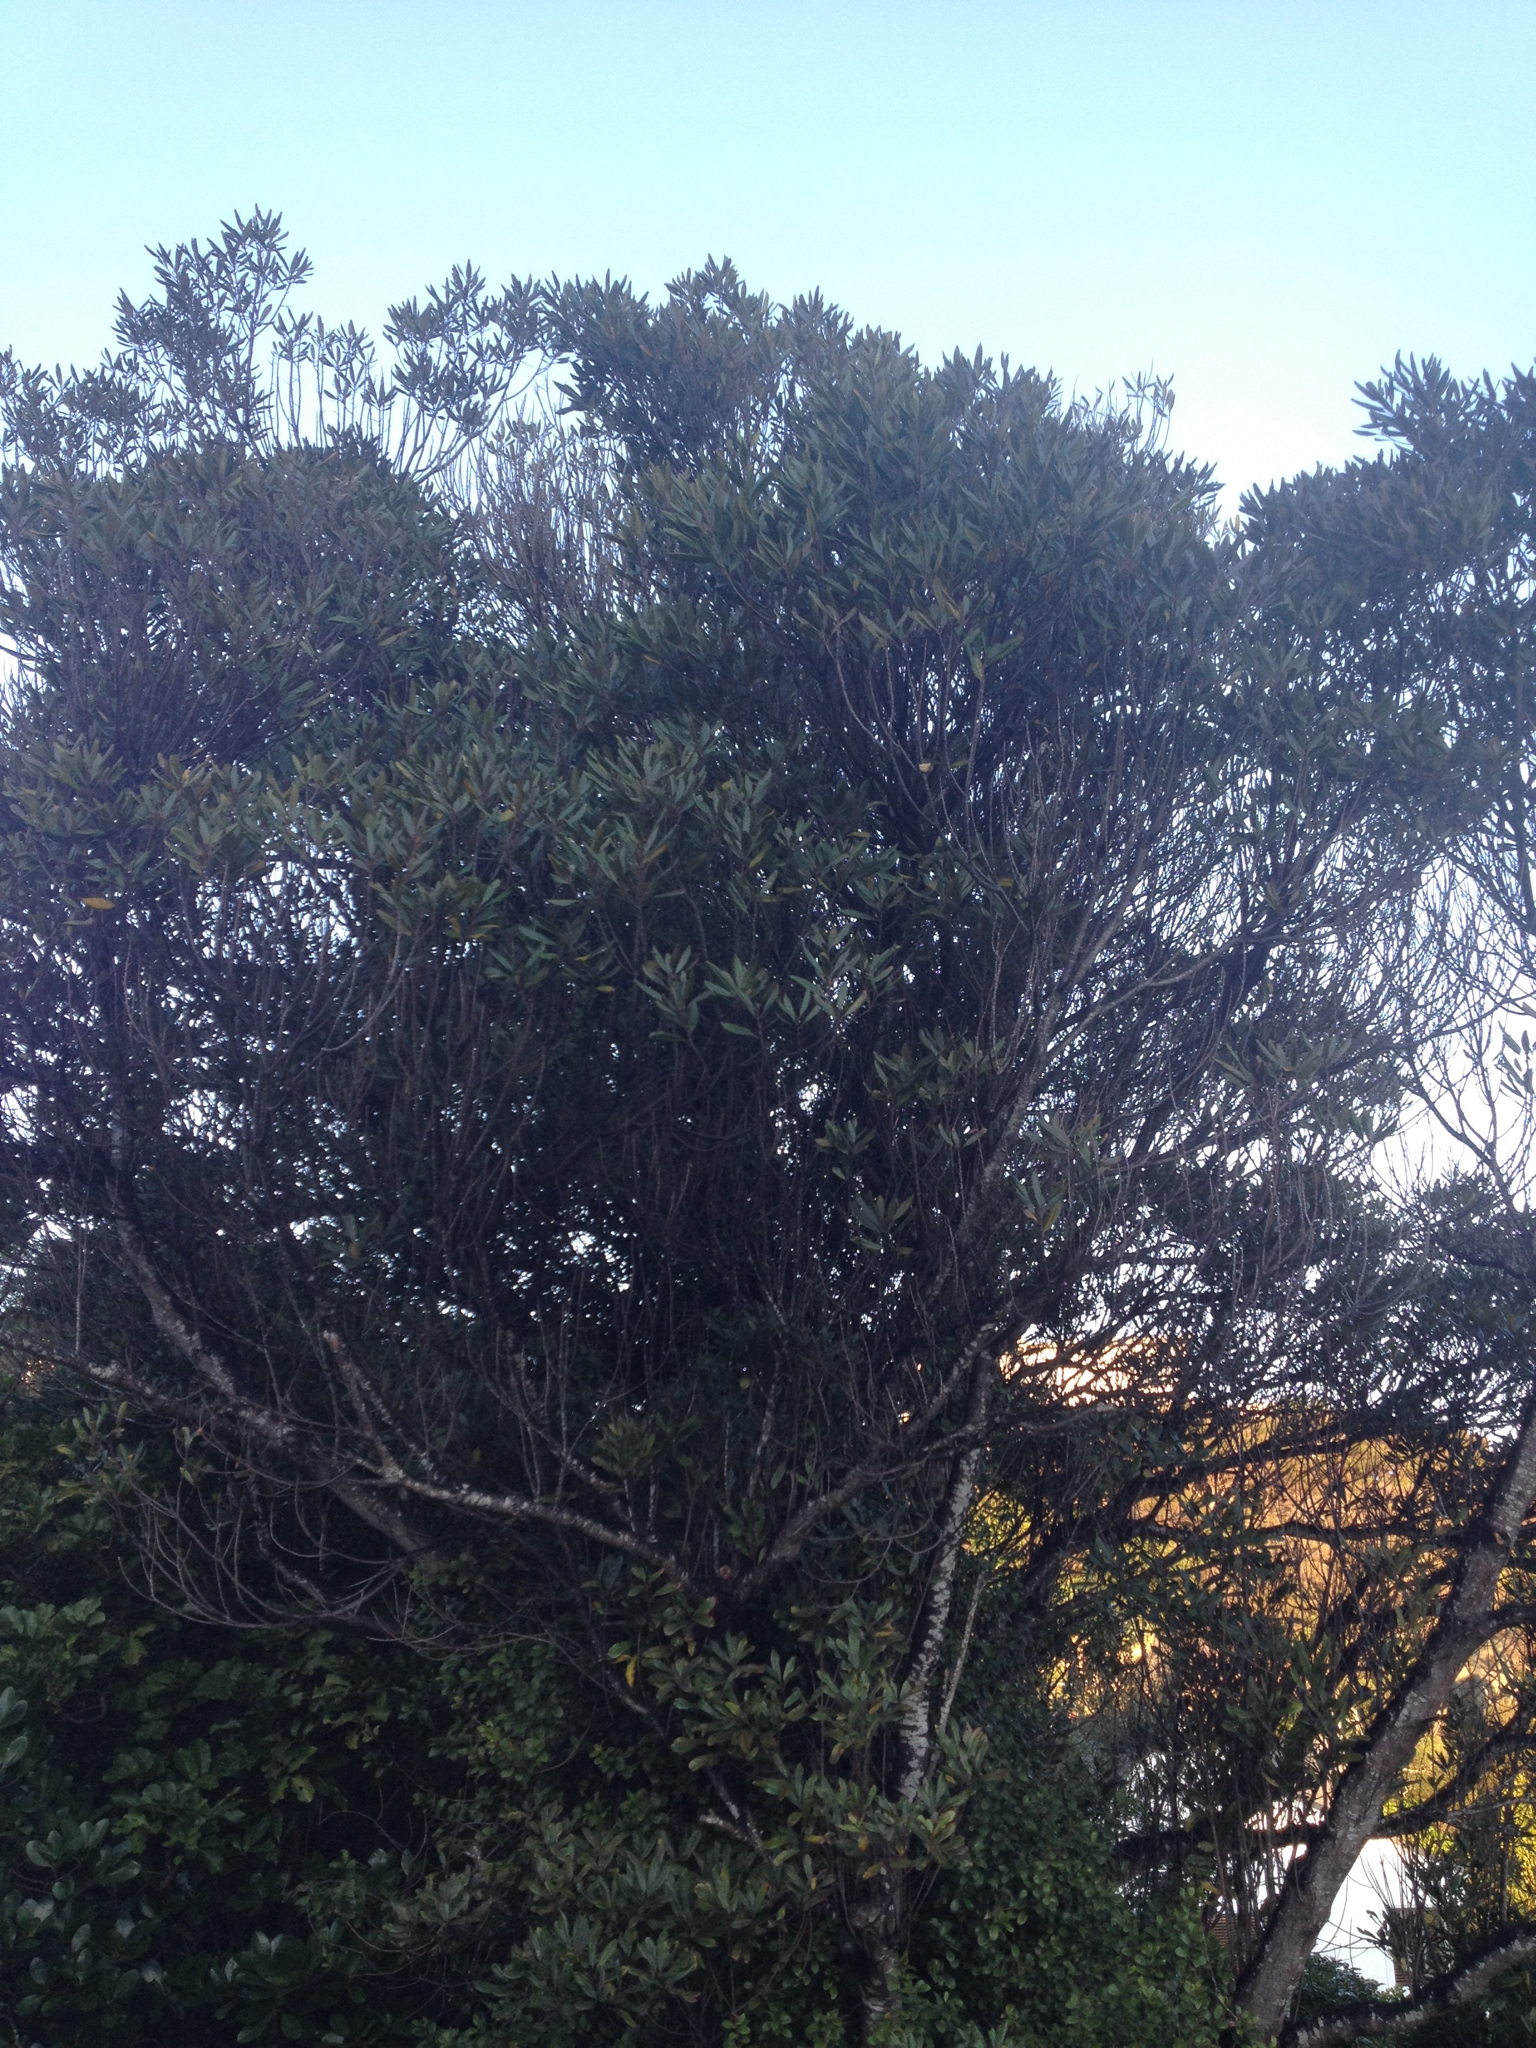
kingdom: Plantae
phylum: Tracheophyta
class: Magnoliopsida
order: Oxalidales
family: Elaeocarpaceae
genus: Elaeocarpus
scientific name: Elaeocarpus dentatus
